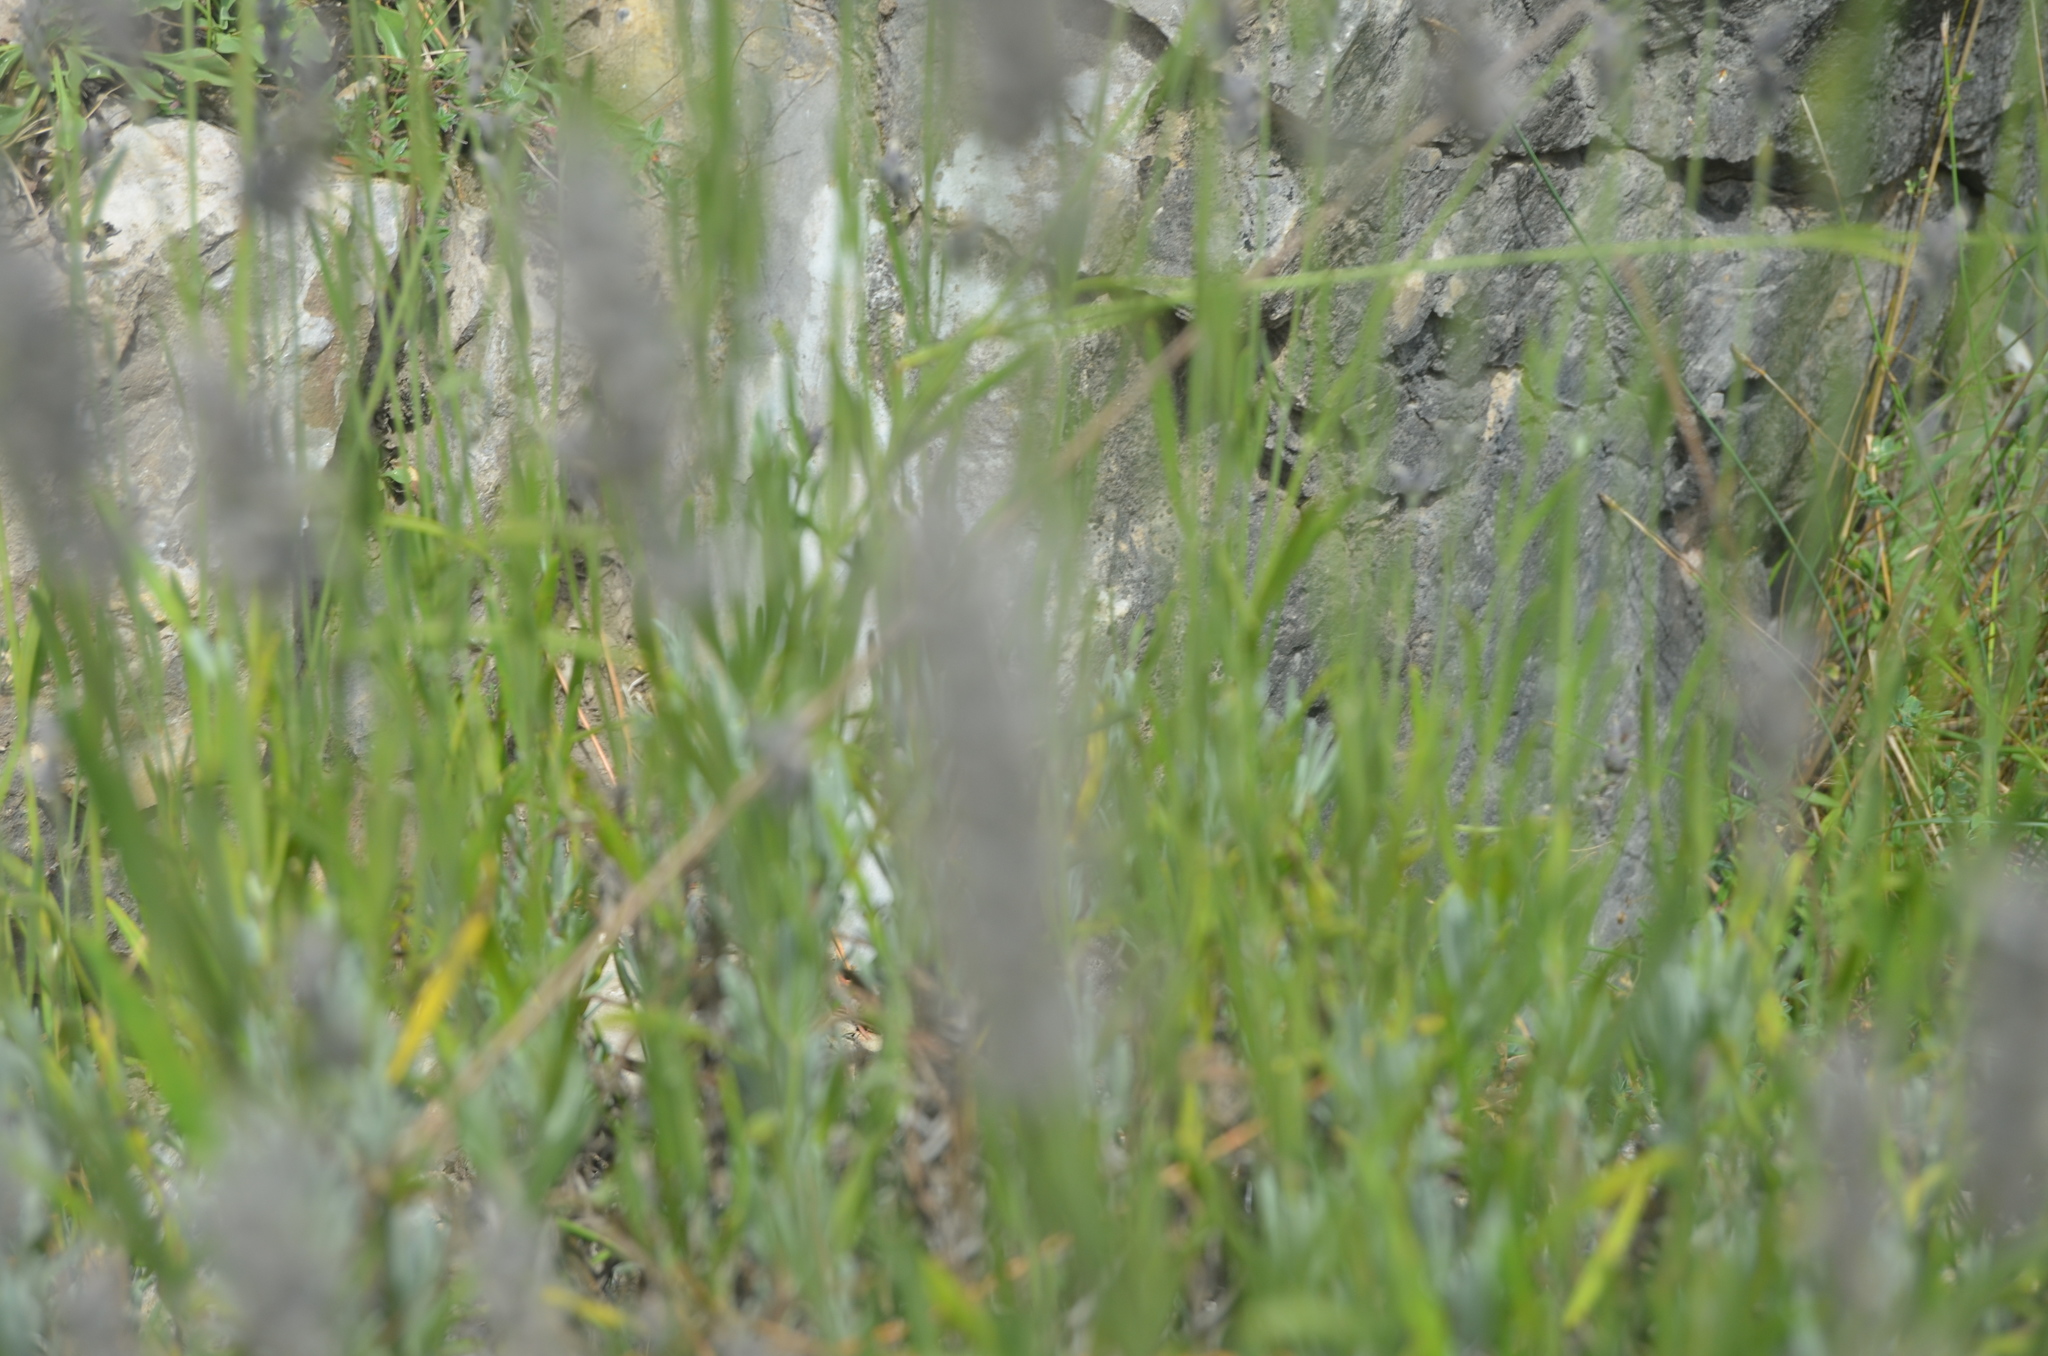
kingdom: Plantae
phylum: Tracheophyta
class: Magnoliopsida
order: Lamiales
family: Lamiaceae
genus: Lavandula
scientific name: Lavandula angustifolia
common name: Garden lavender
